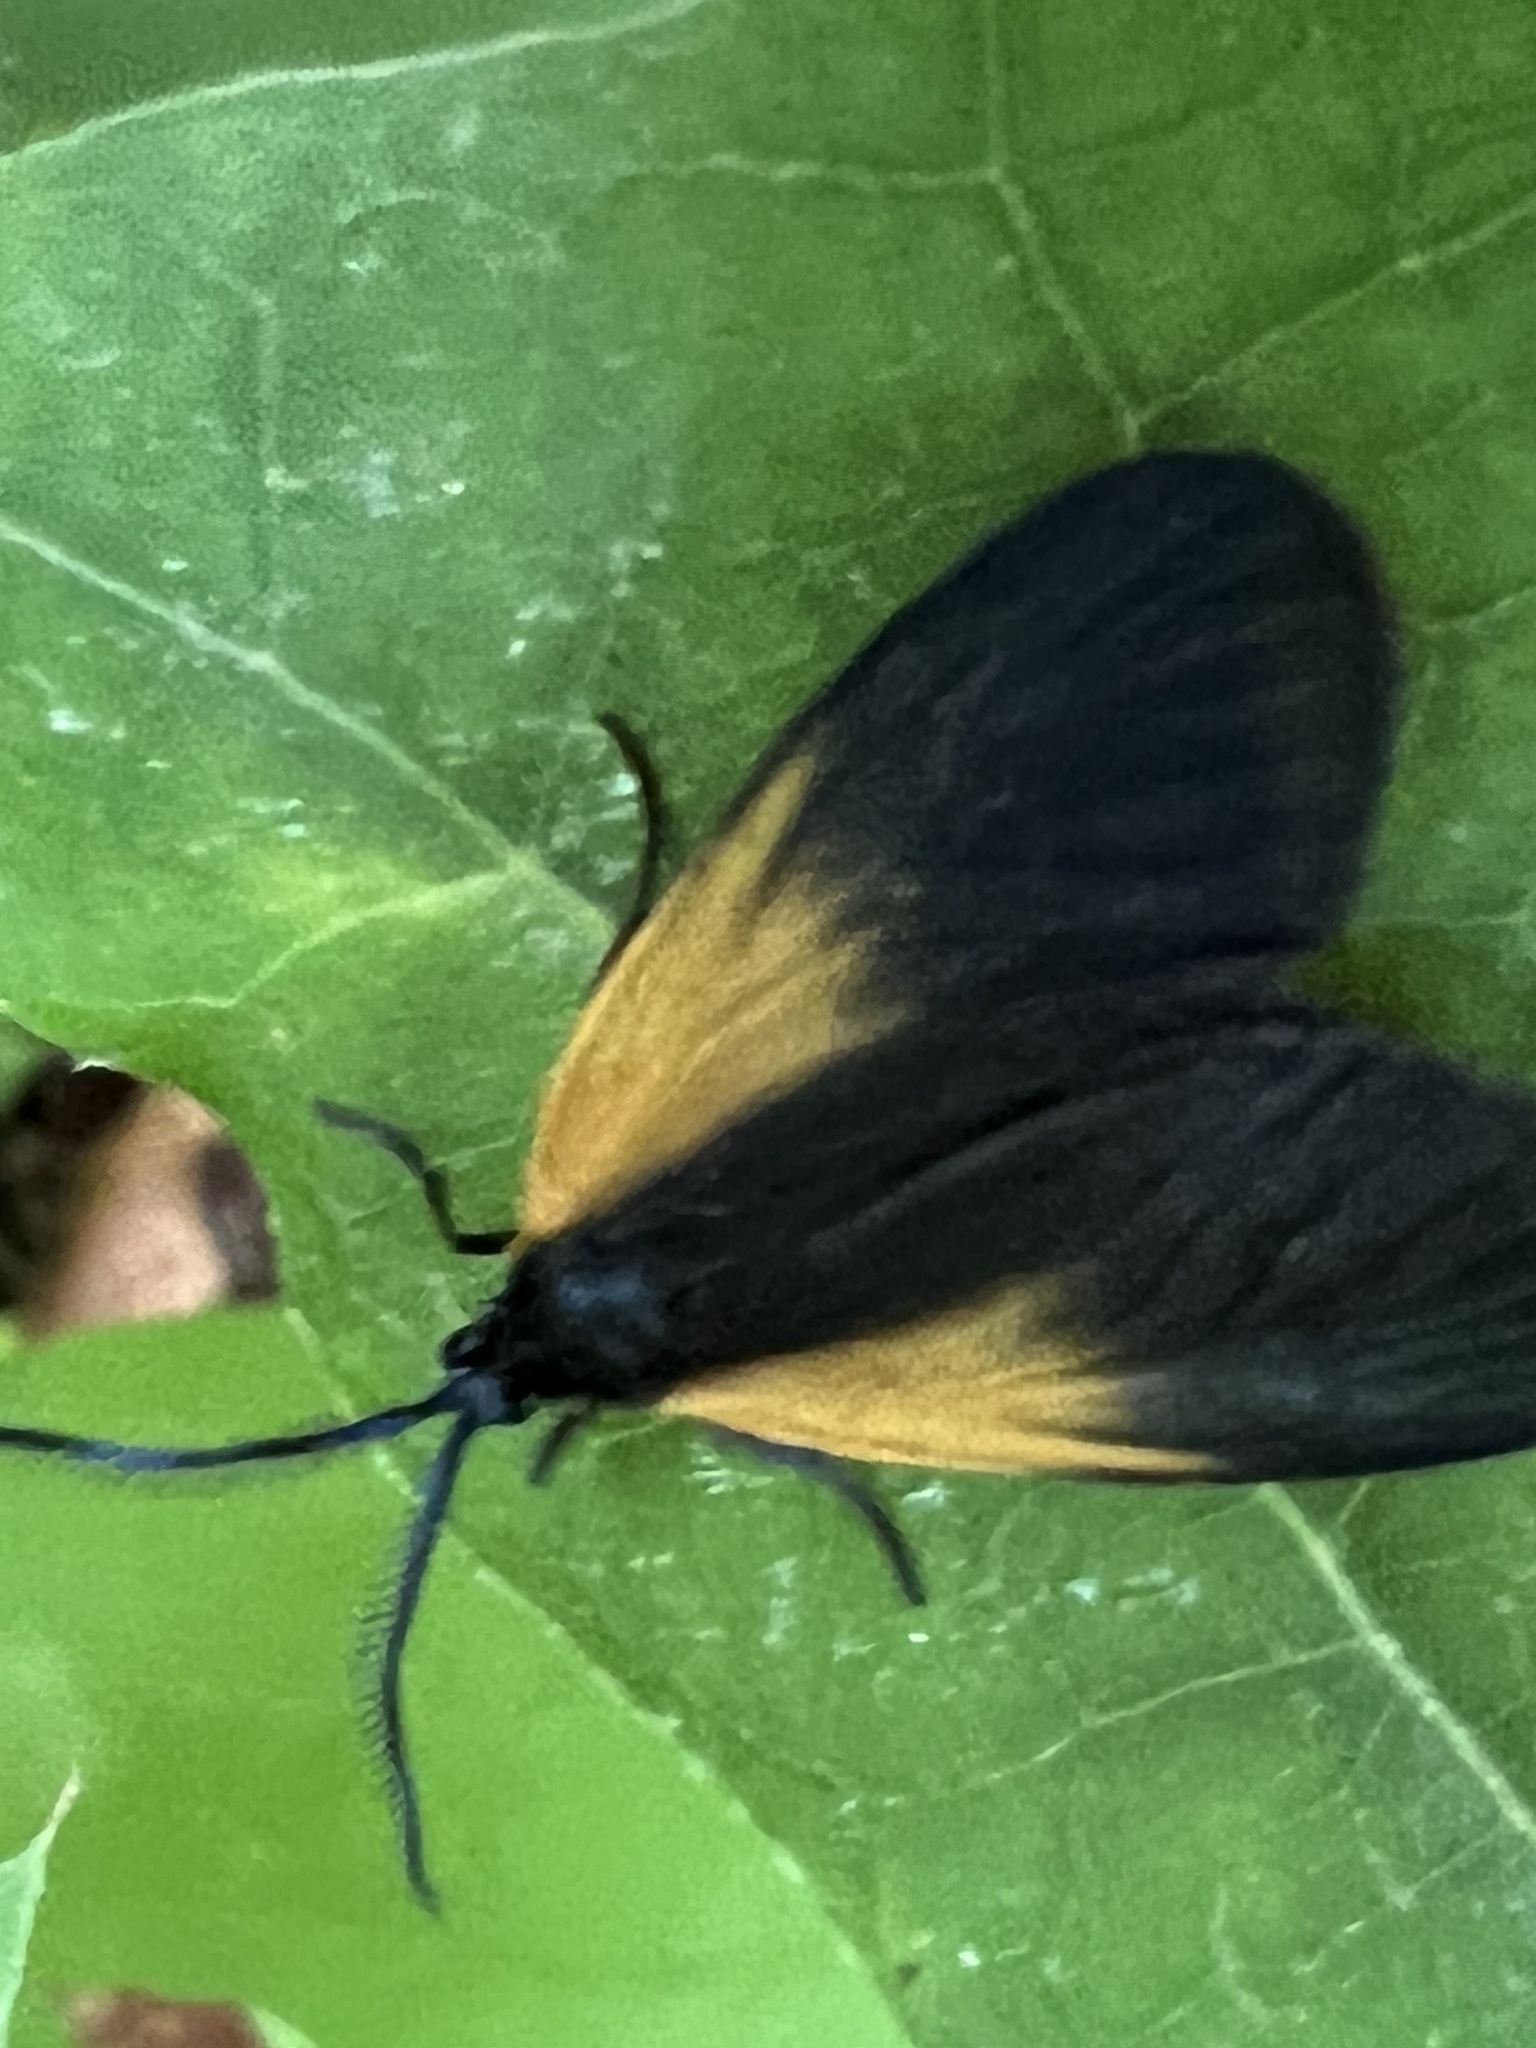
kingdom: Animalia
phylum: Arthropoda
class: Insecta
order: Lepidoptera
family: Zygaenidae
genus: Malthaca
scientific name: Malthaca dimidiata
